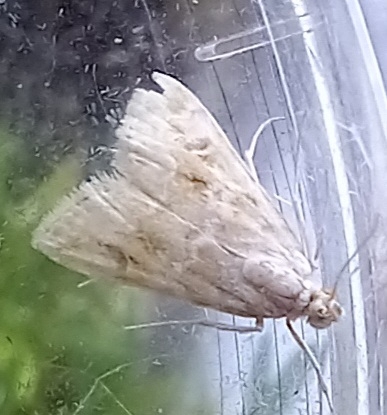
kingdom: Animalia
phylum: Arthropoda
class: Insecta
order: Lepidoptera
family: Crambidae
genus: Hellula
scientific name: Hellula undalis
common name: Cabbage webworm
